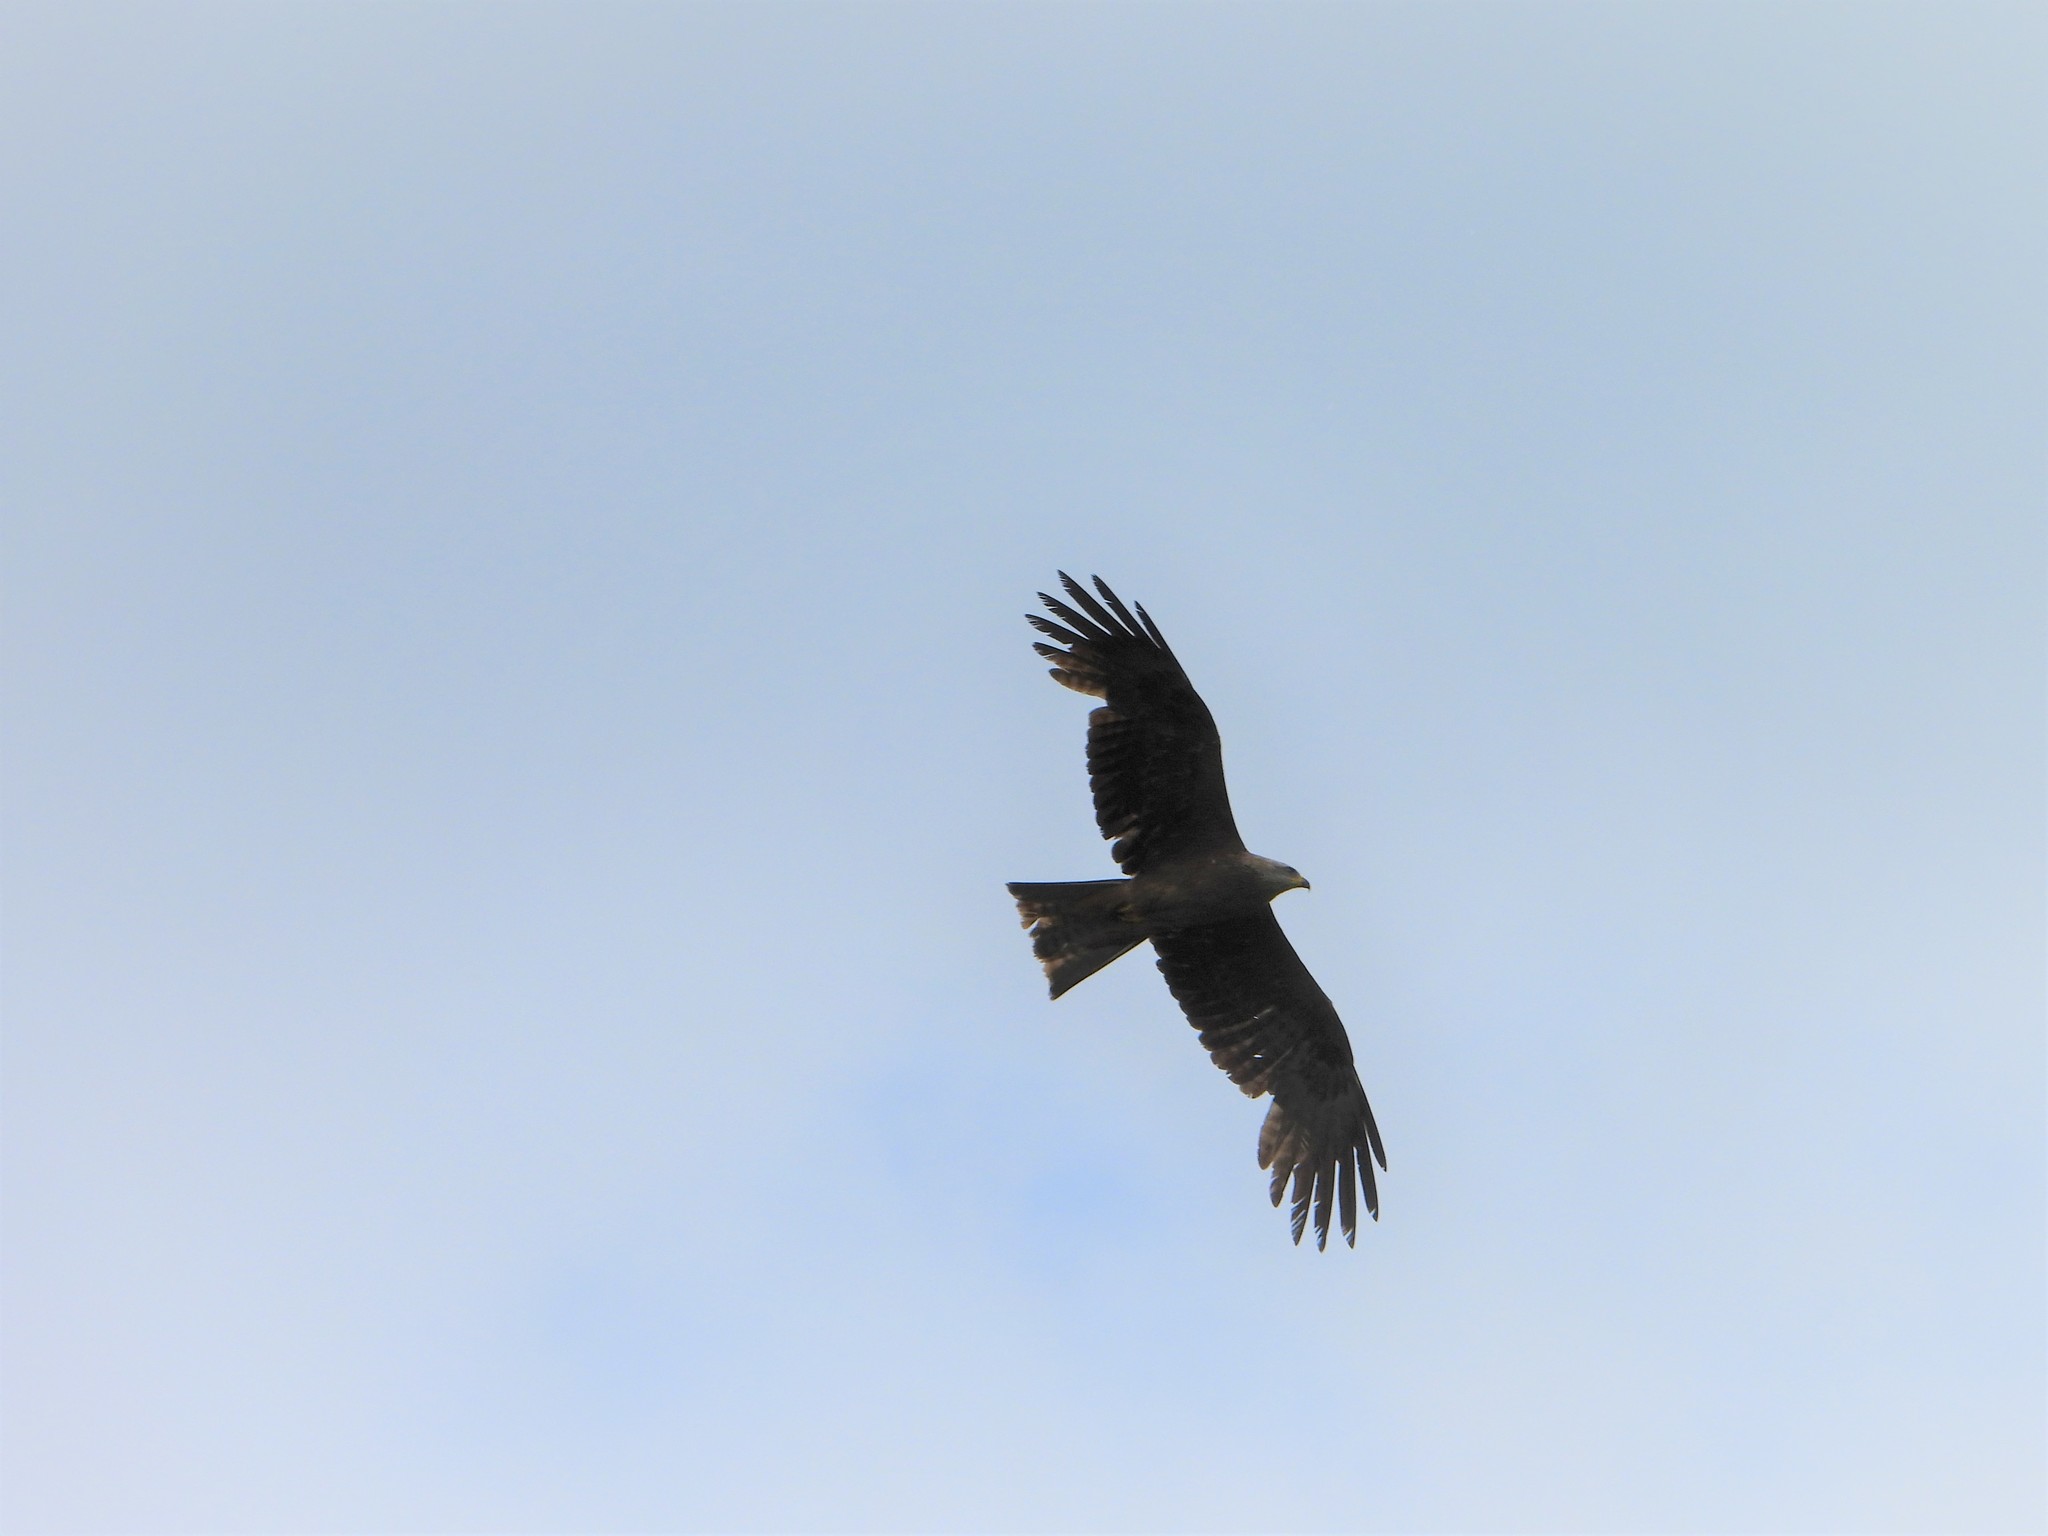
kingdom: Animalia
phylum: Chordata
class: Aves
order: Accipitriformes
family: Accipitridae
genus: Milvus
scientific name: Milvus migrans
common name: Black kite
